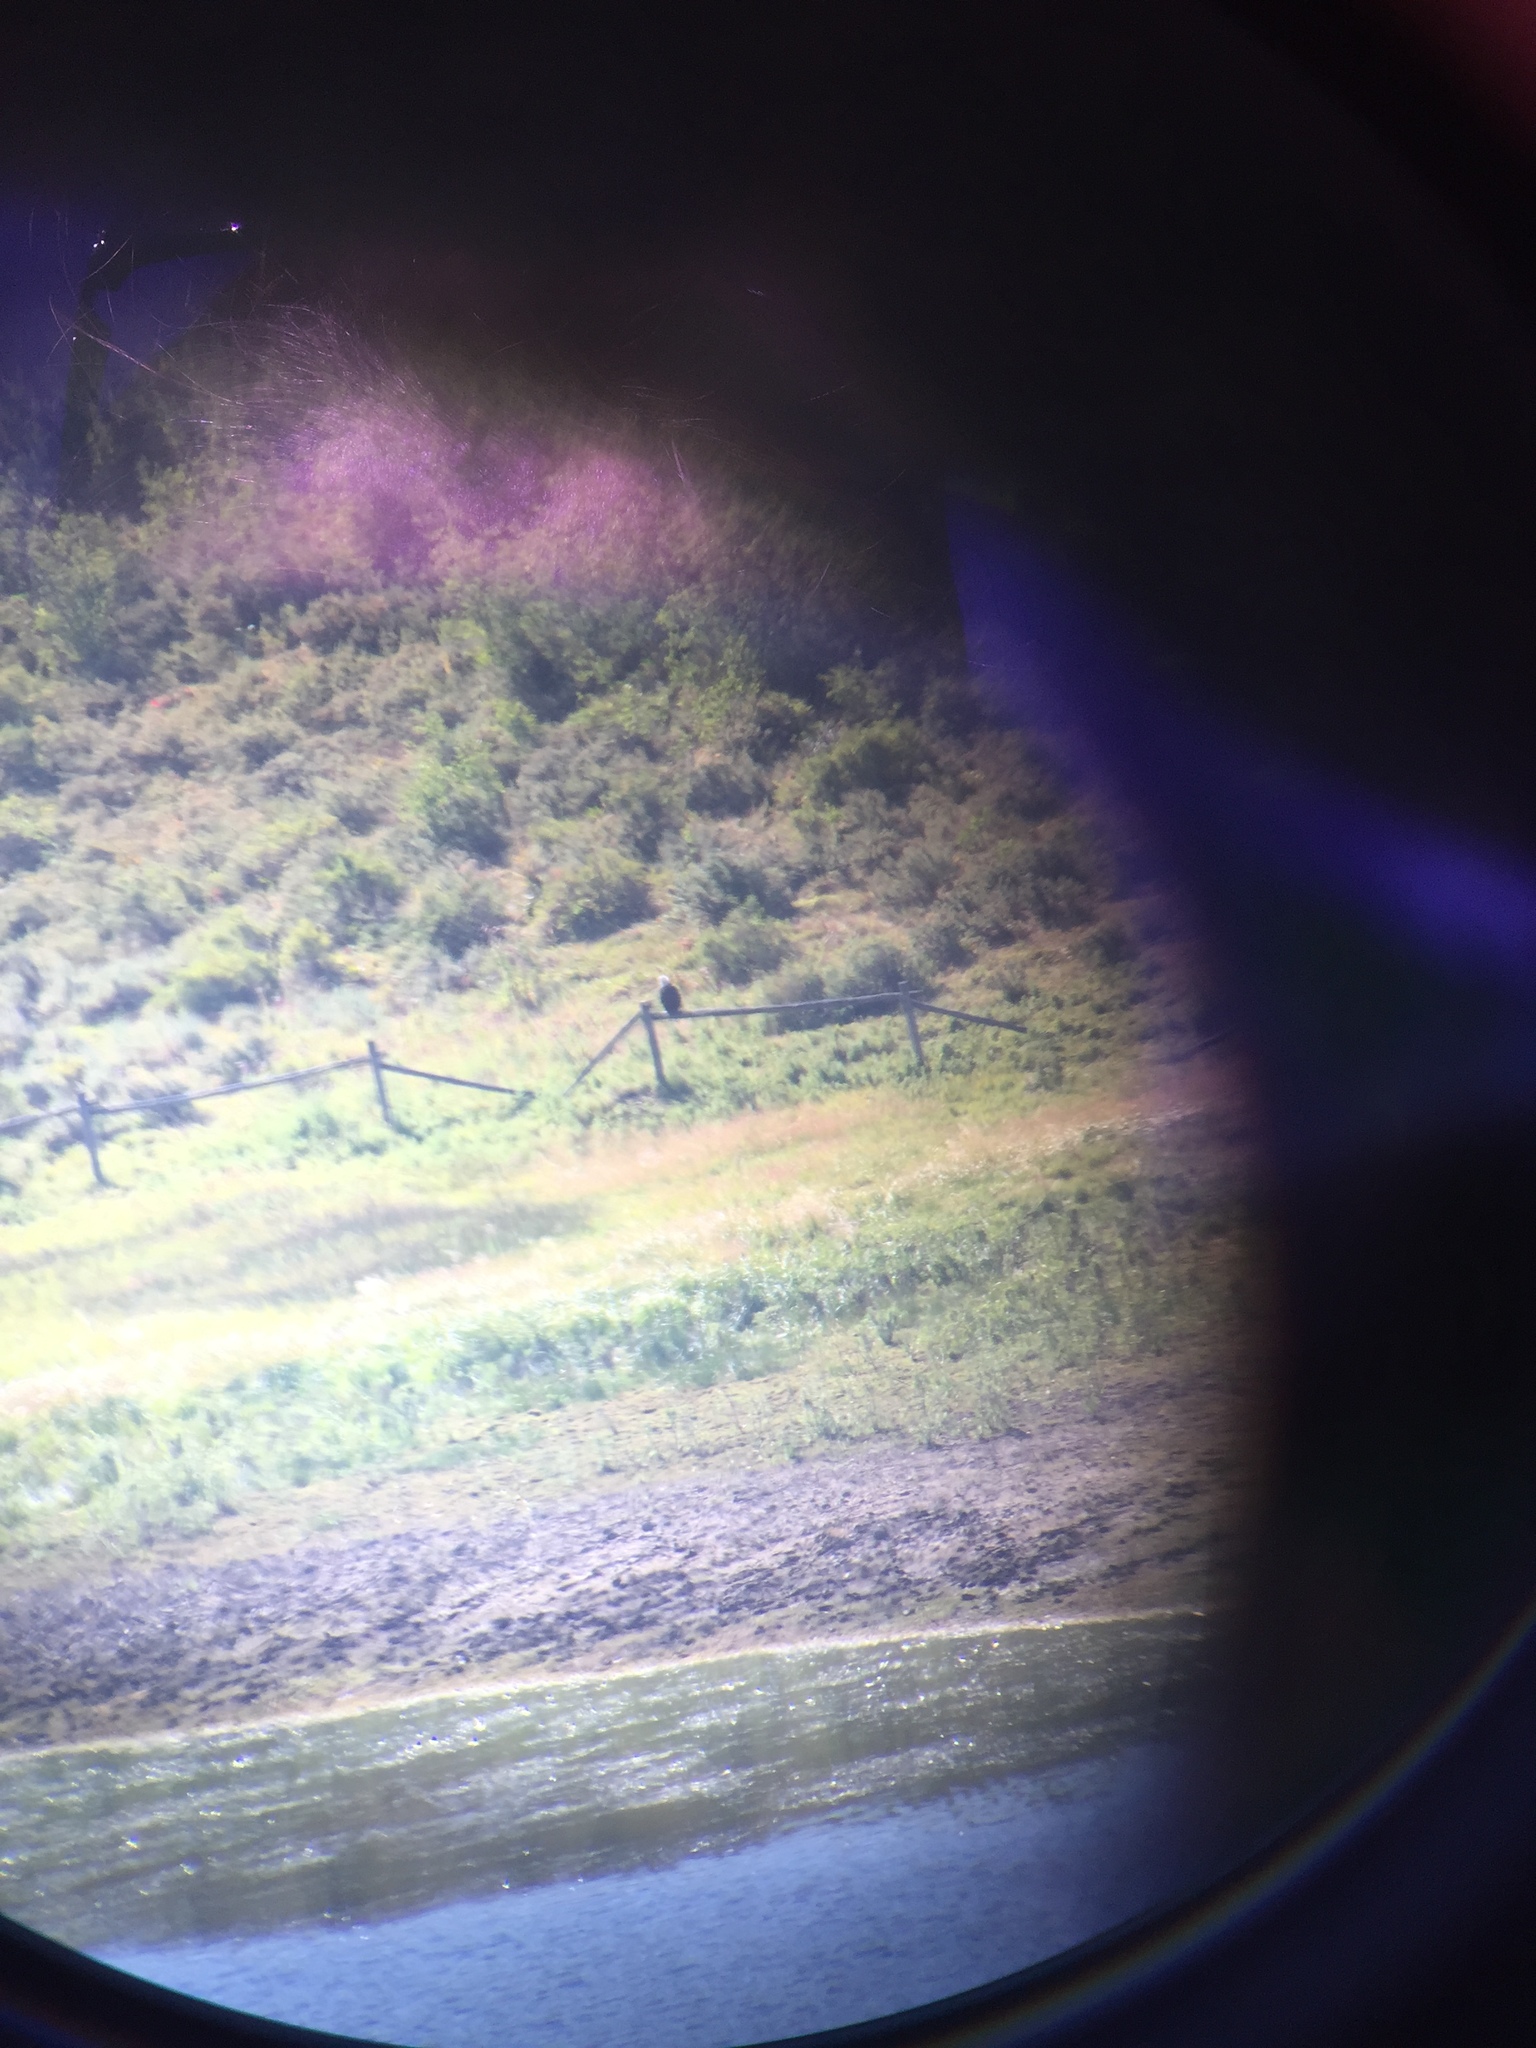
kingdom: Animalia
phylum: Chordata
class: Aves
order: Accipitriformes
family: Accipitridae
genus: Haliaeetus
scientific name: Haliaeetus leucocephalus
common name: Bald eagle
